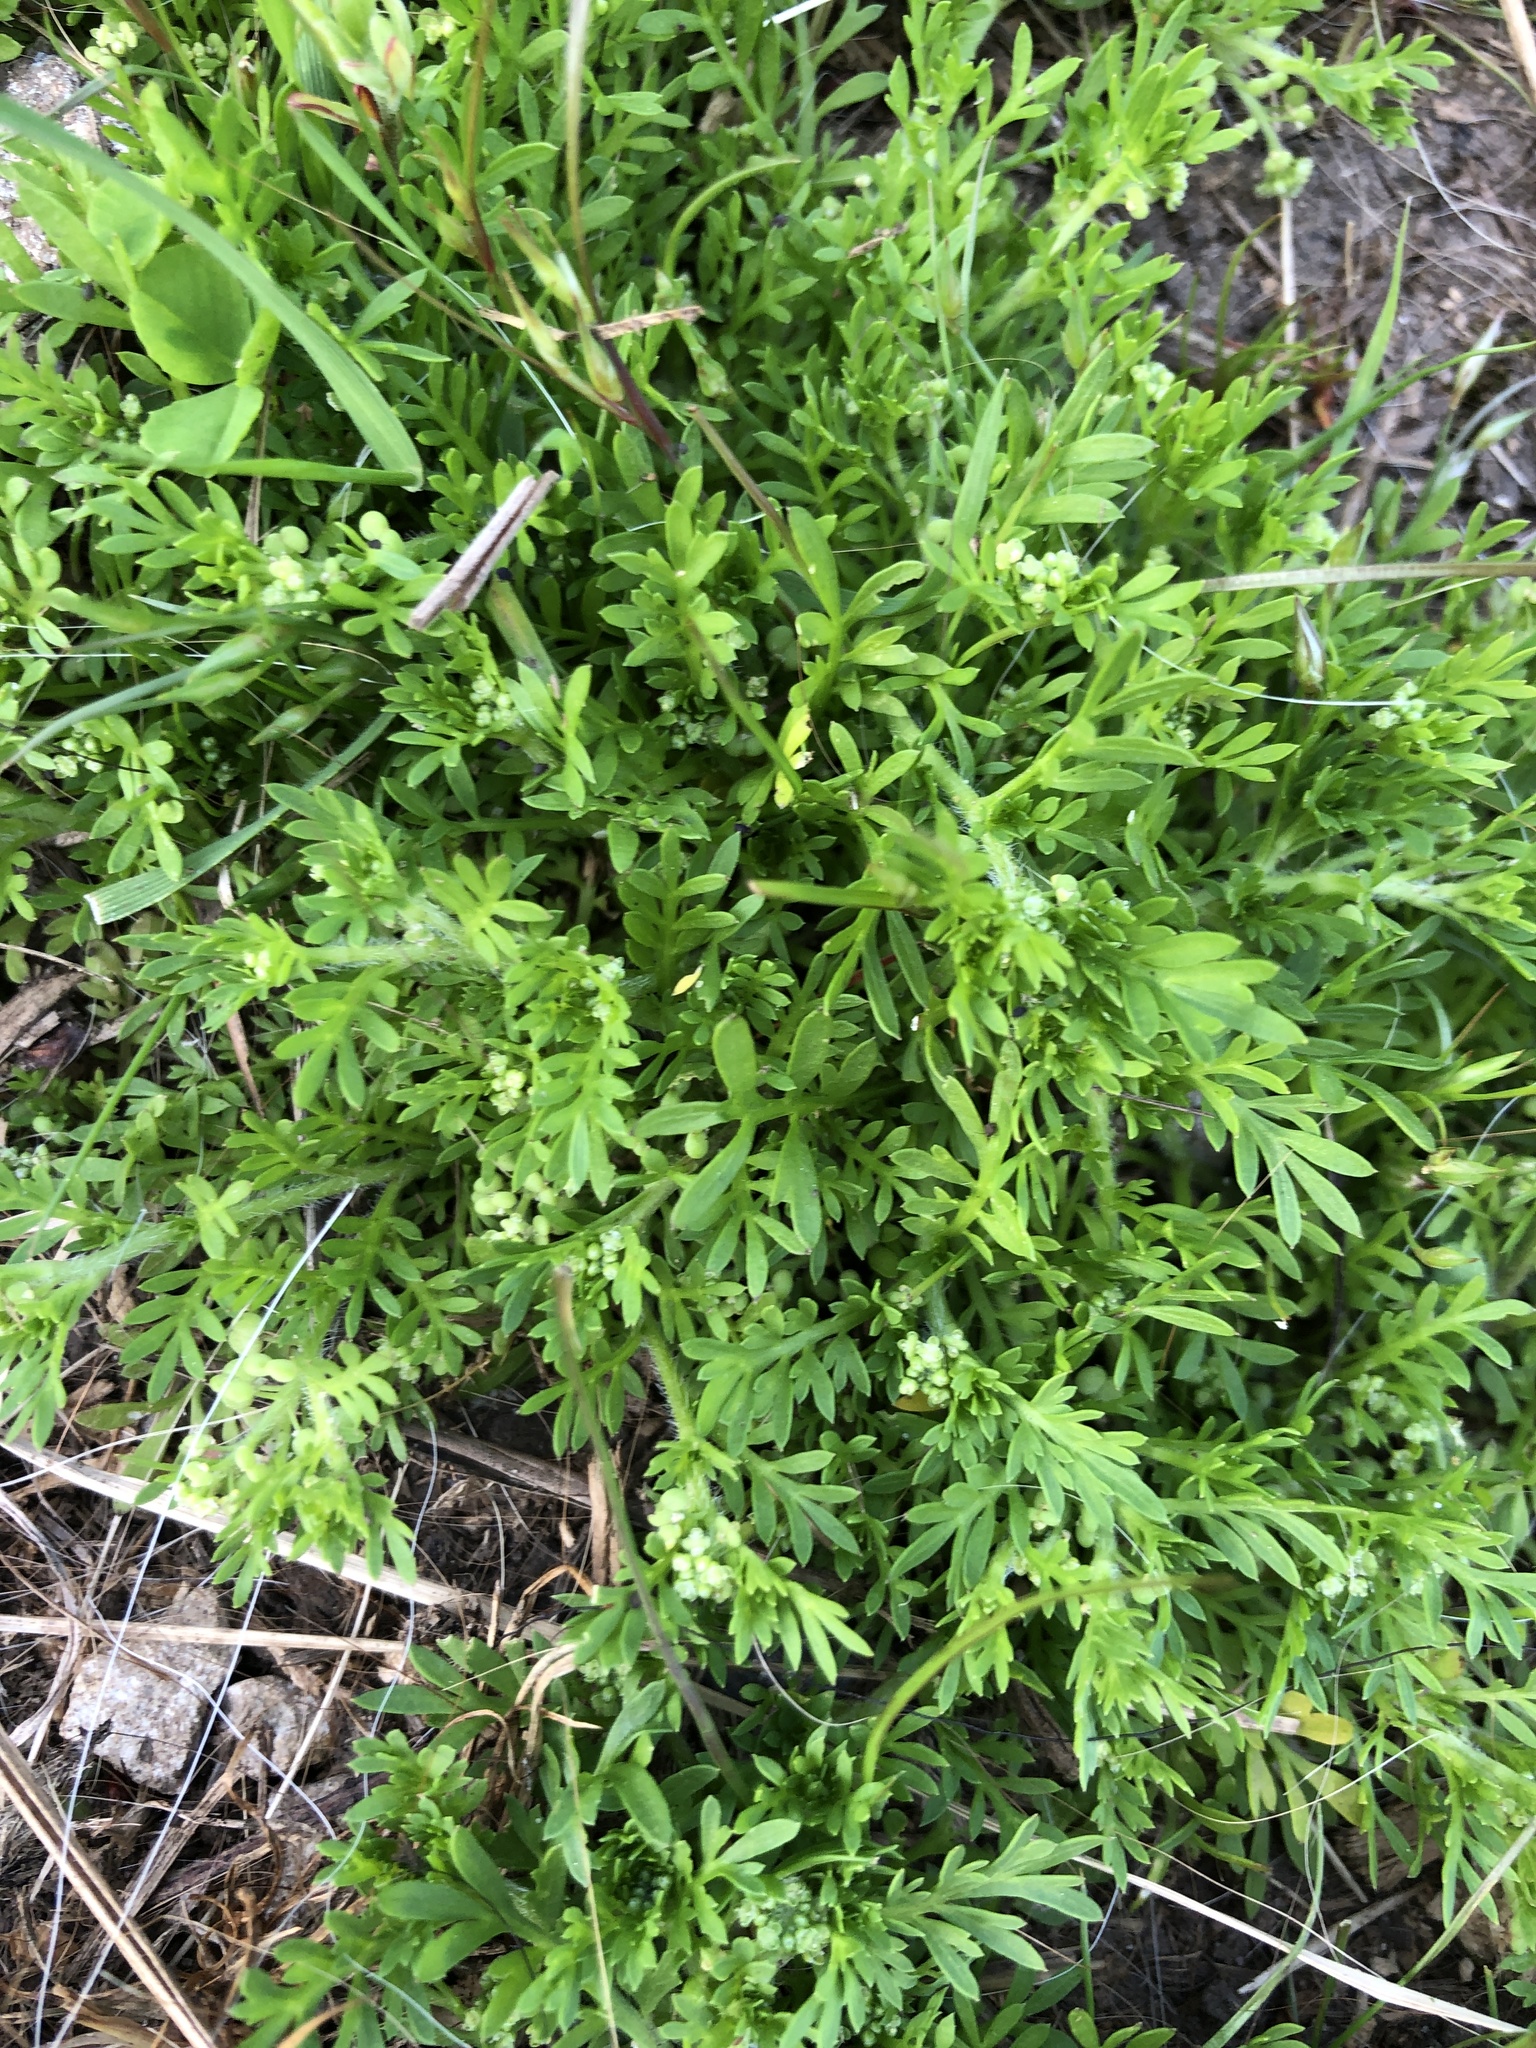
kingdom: Plantae
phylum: Tracheophyta
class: Magnoliopsida
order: Brassicales
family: Brassicaceae
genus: Lepidium
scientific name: Lepidium didymum
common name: Lesser swinecress
